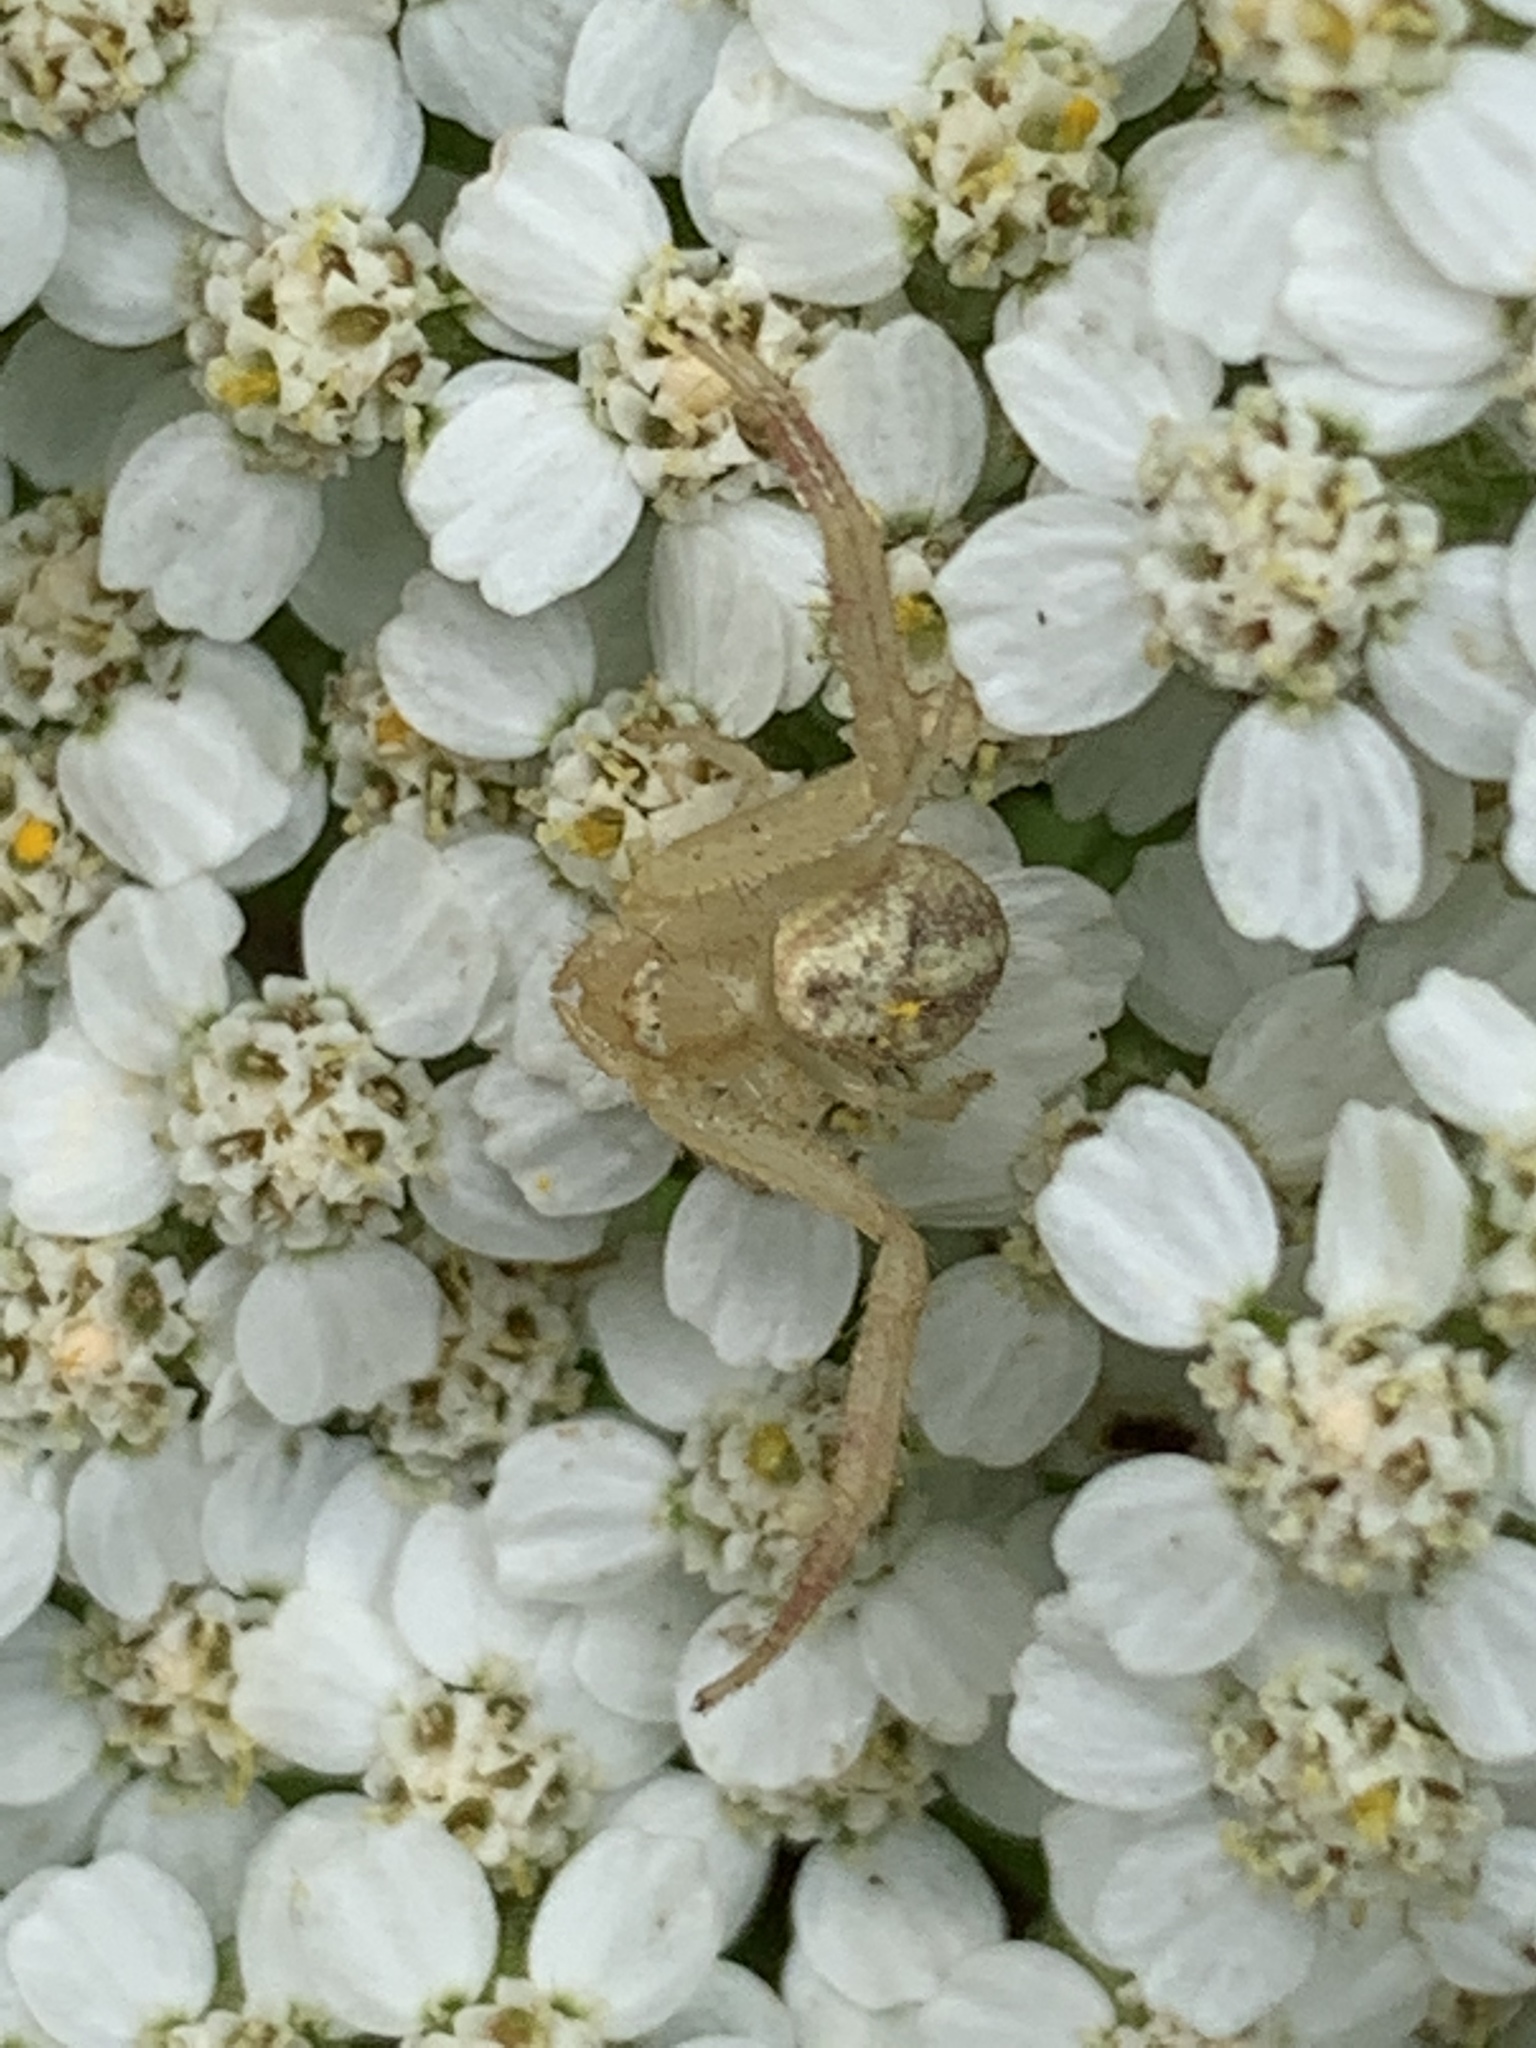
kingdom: Animalia
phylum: Arthropoda
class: Arachnida
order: Araneae
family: Thomisidae
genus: Mecaphesa
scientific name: Mecaphesa celer
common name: Crab spiders
